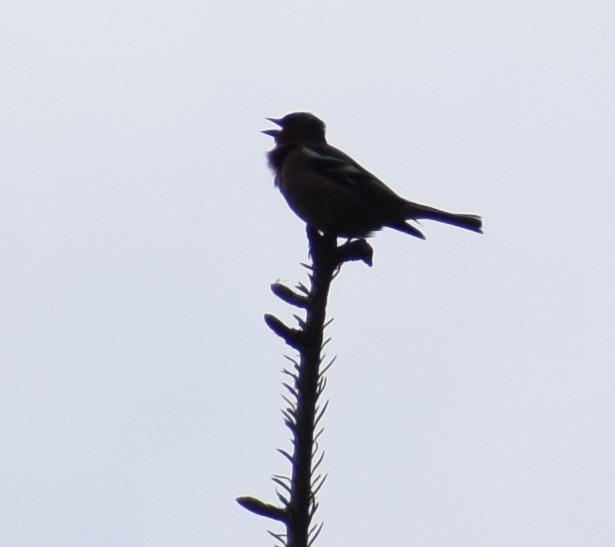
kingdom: Animalia
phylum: Chordata
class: Aves
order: Passeriformes
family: Fringillidae
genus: Fringilla
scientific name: Fringilla coelebs
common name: Common chaffinch
